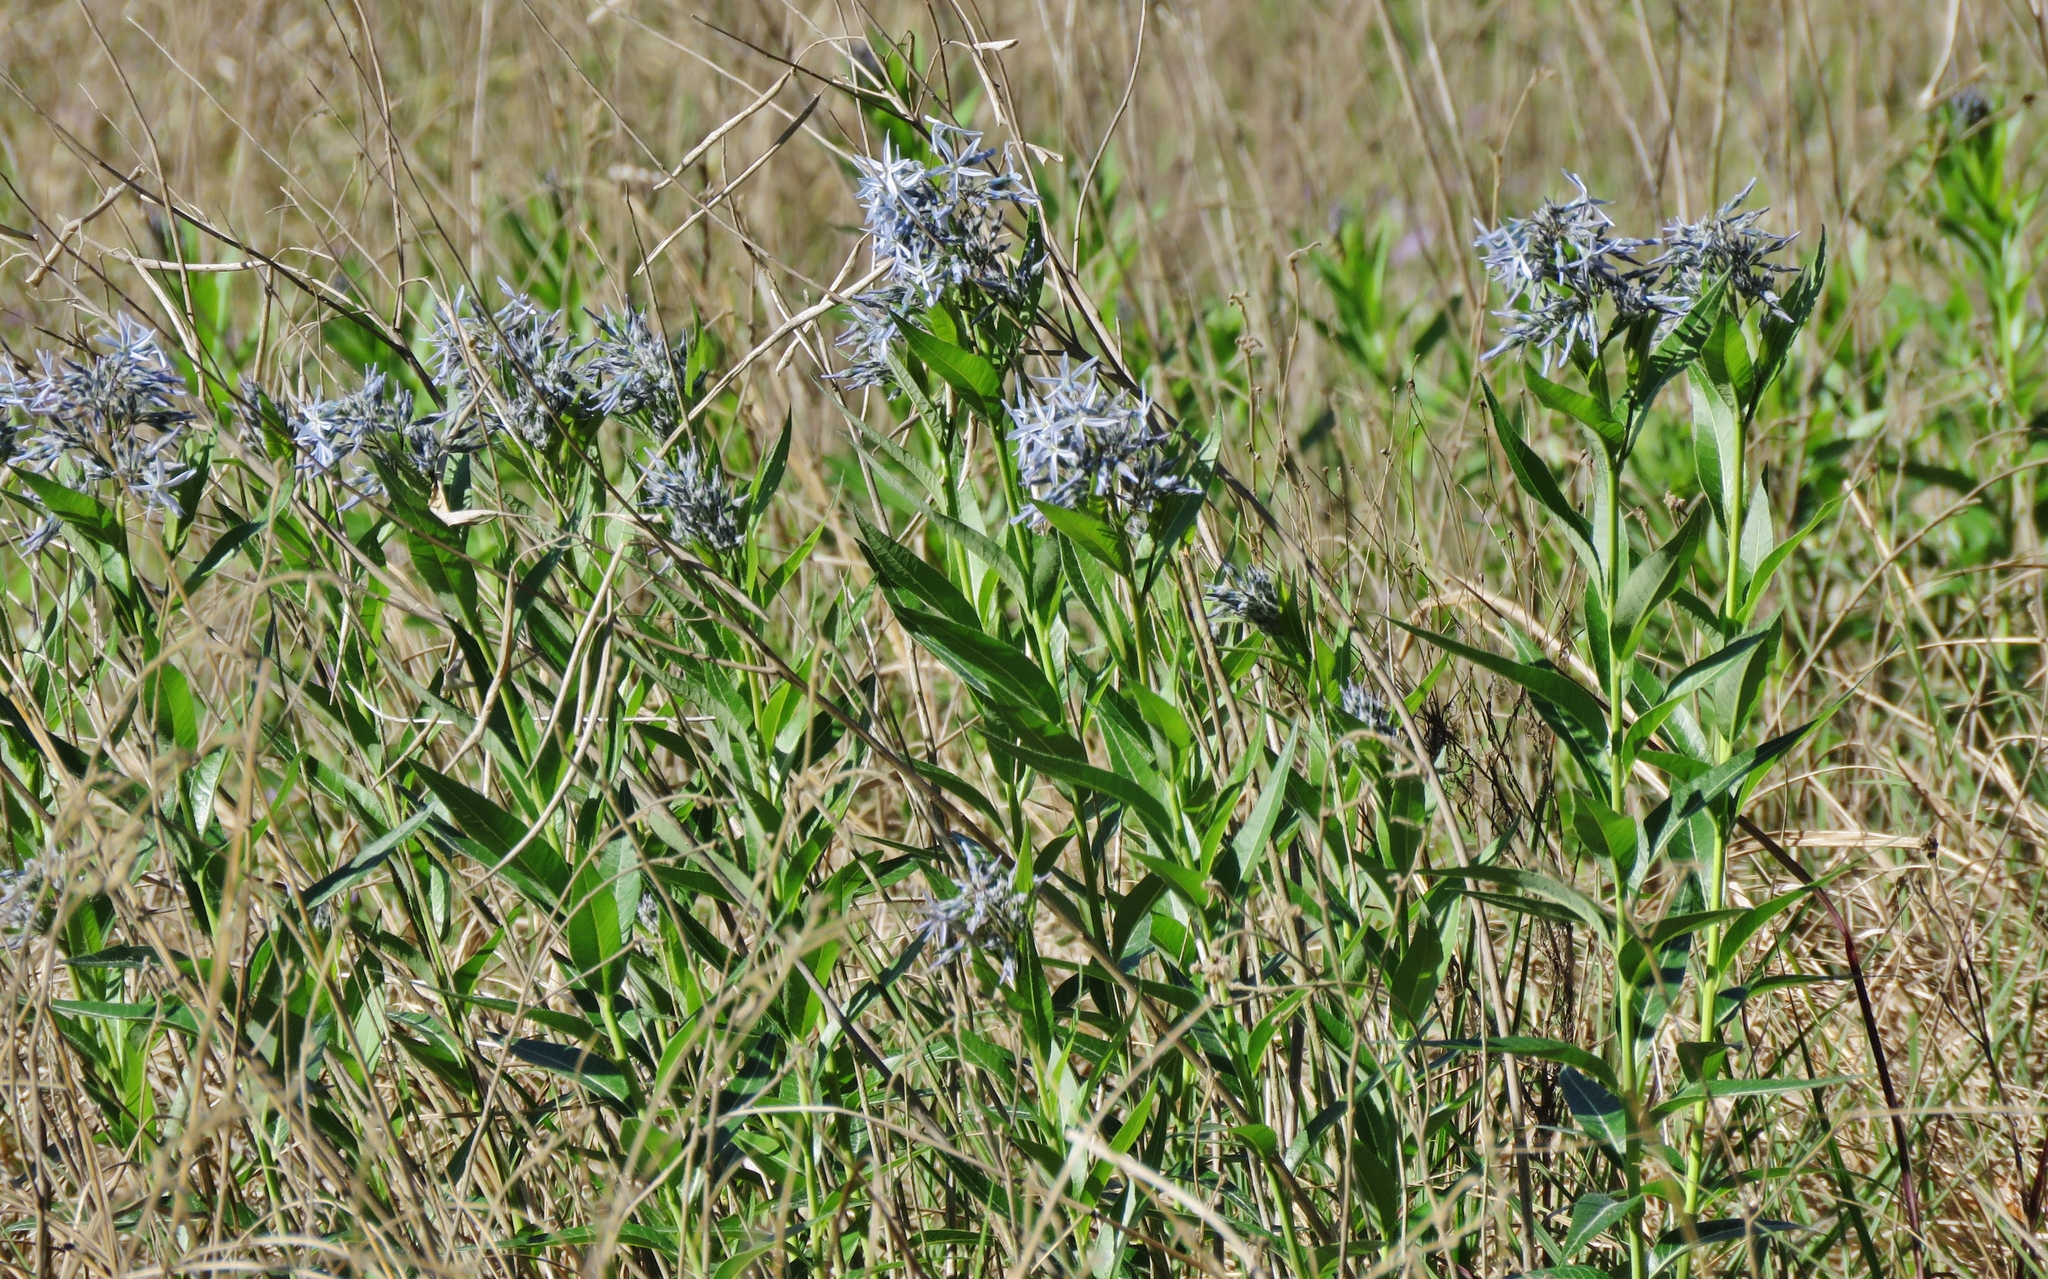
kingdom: Plantae
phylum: Tracheophyta
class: Magnoliopsida
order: Gentianales
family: Apocynaceae
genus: Amsonia
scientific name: Amsonia tabernaemontana
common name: Texas-star
